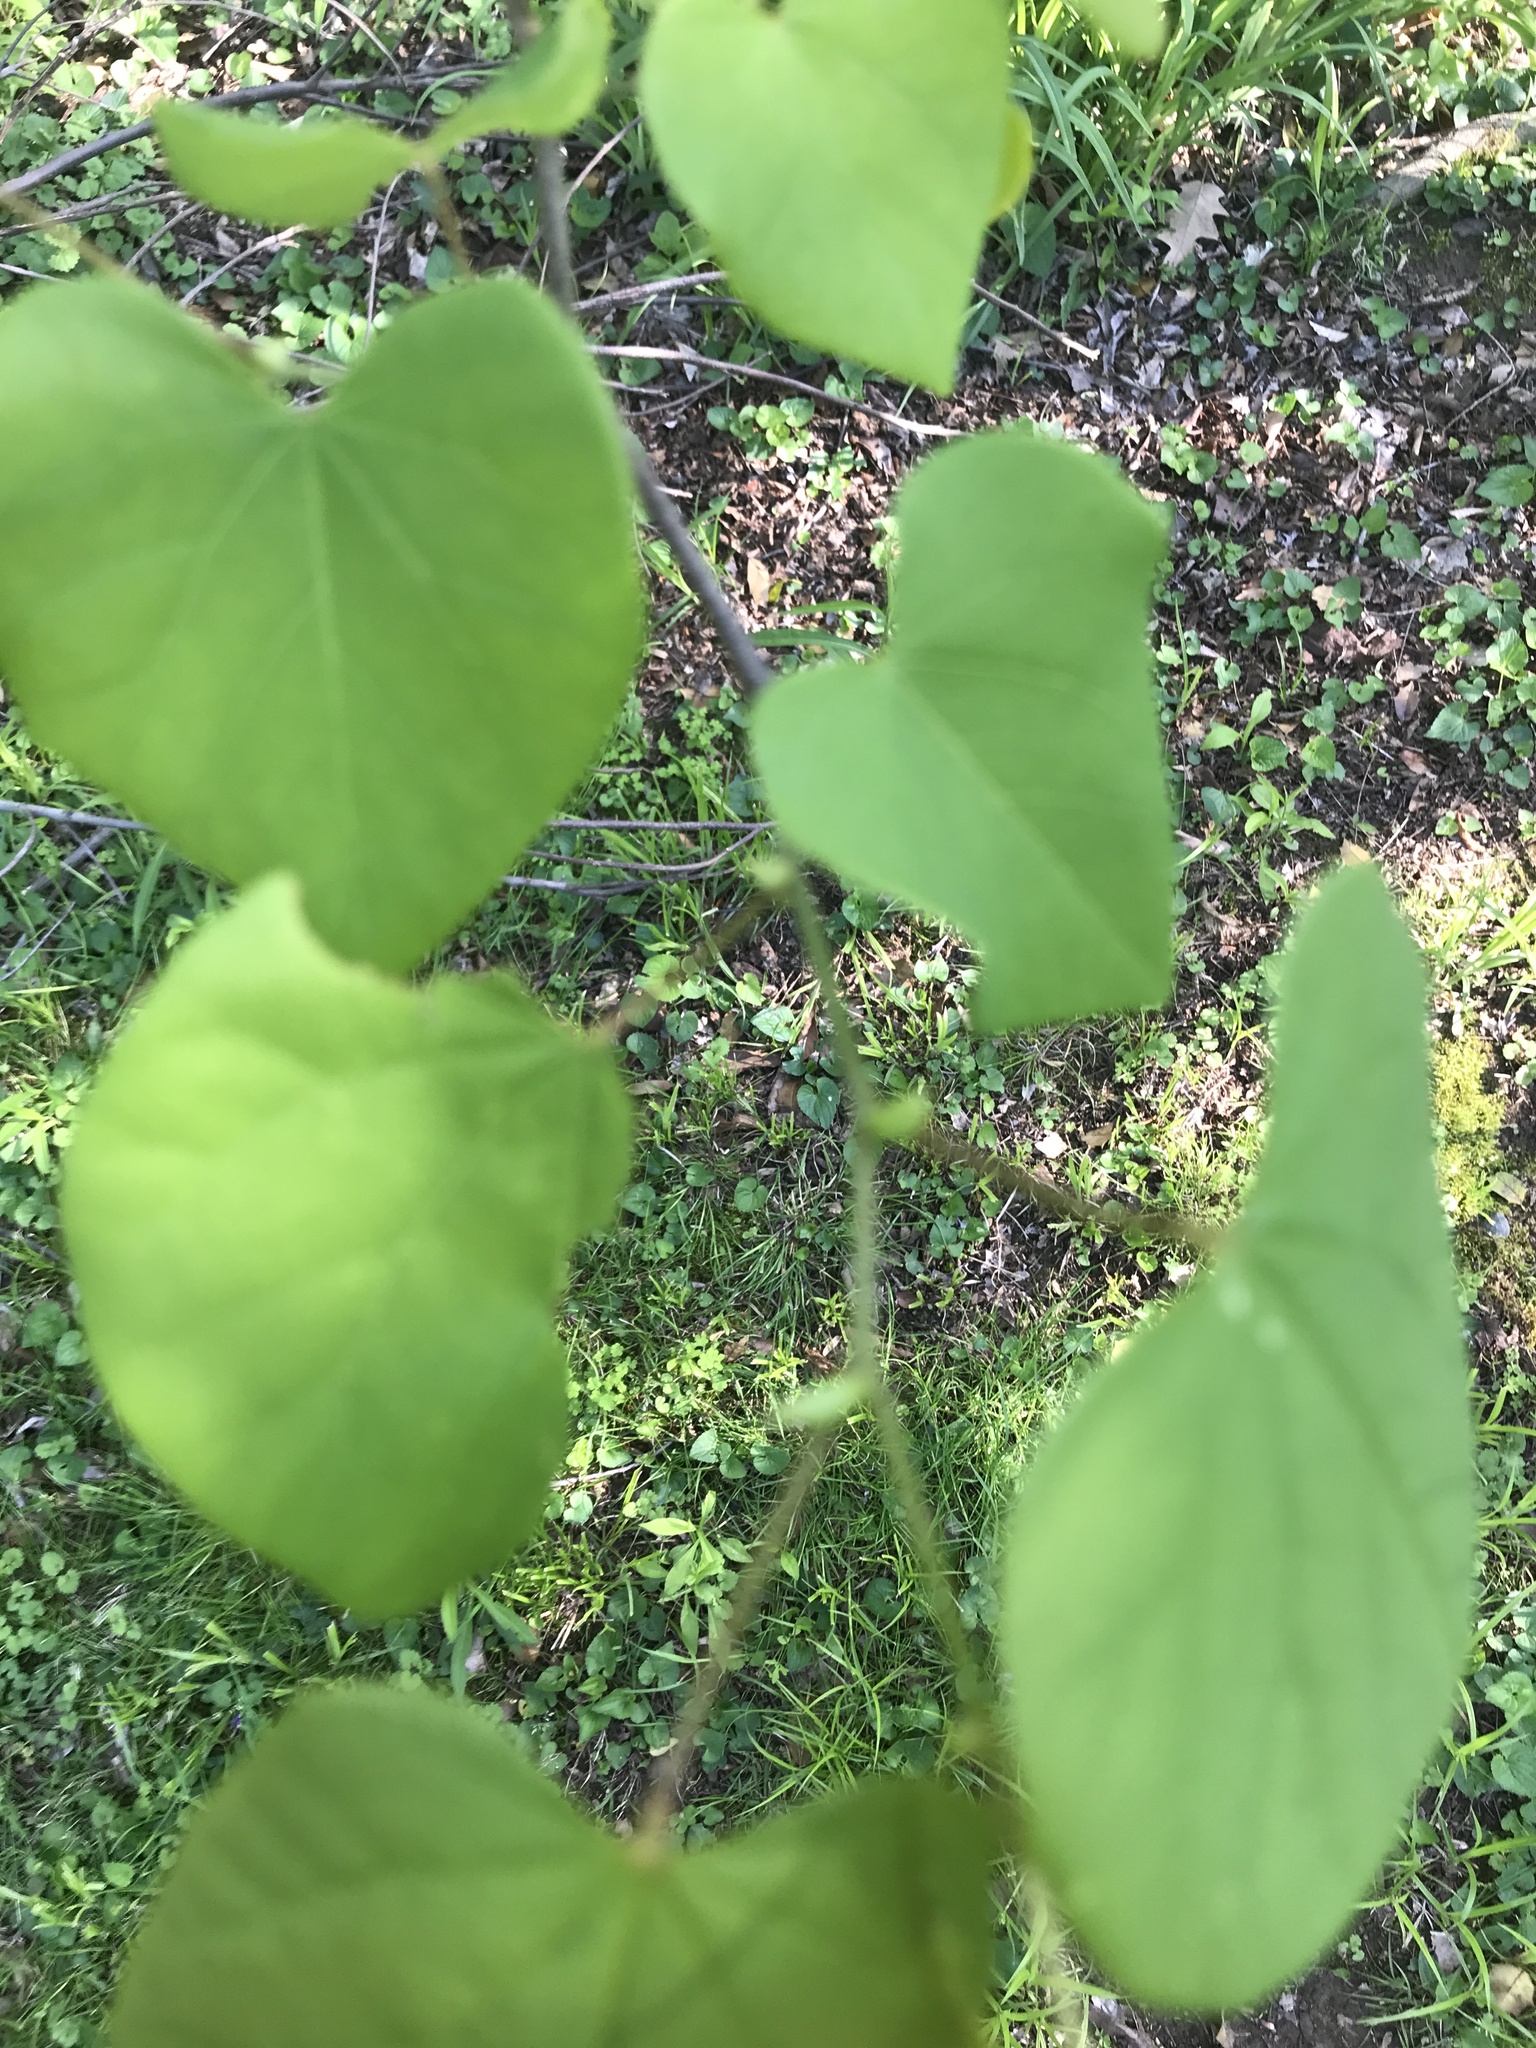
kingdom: Plantae
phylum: Tracheophyta
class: Magnoliopsida
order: Fabales
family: Fabaceae
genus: Cercis
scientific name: Cercis canadensis
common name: Eastern redbud
